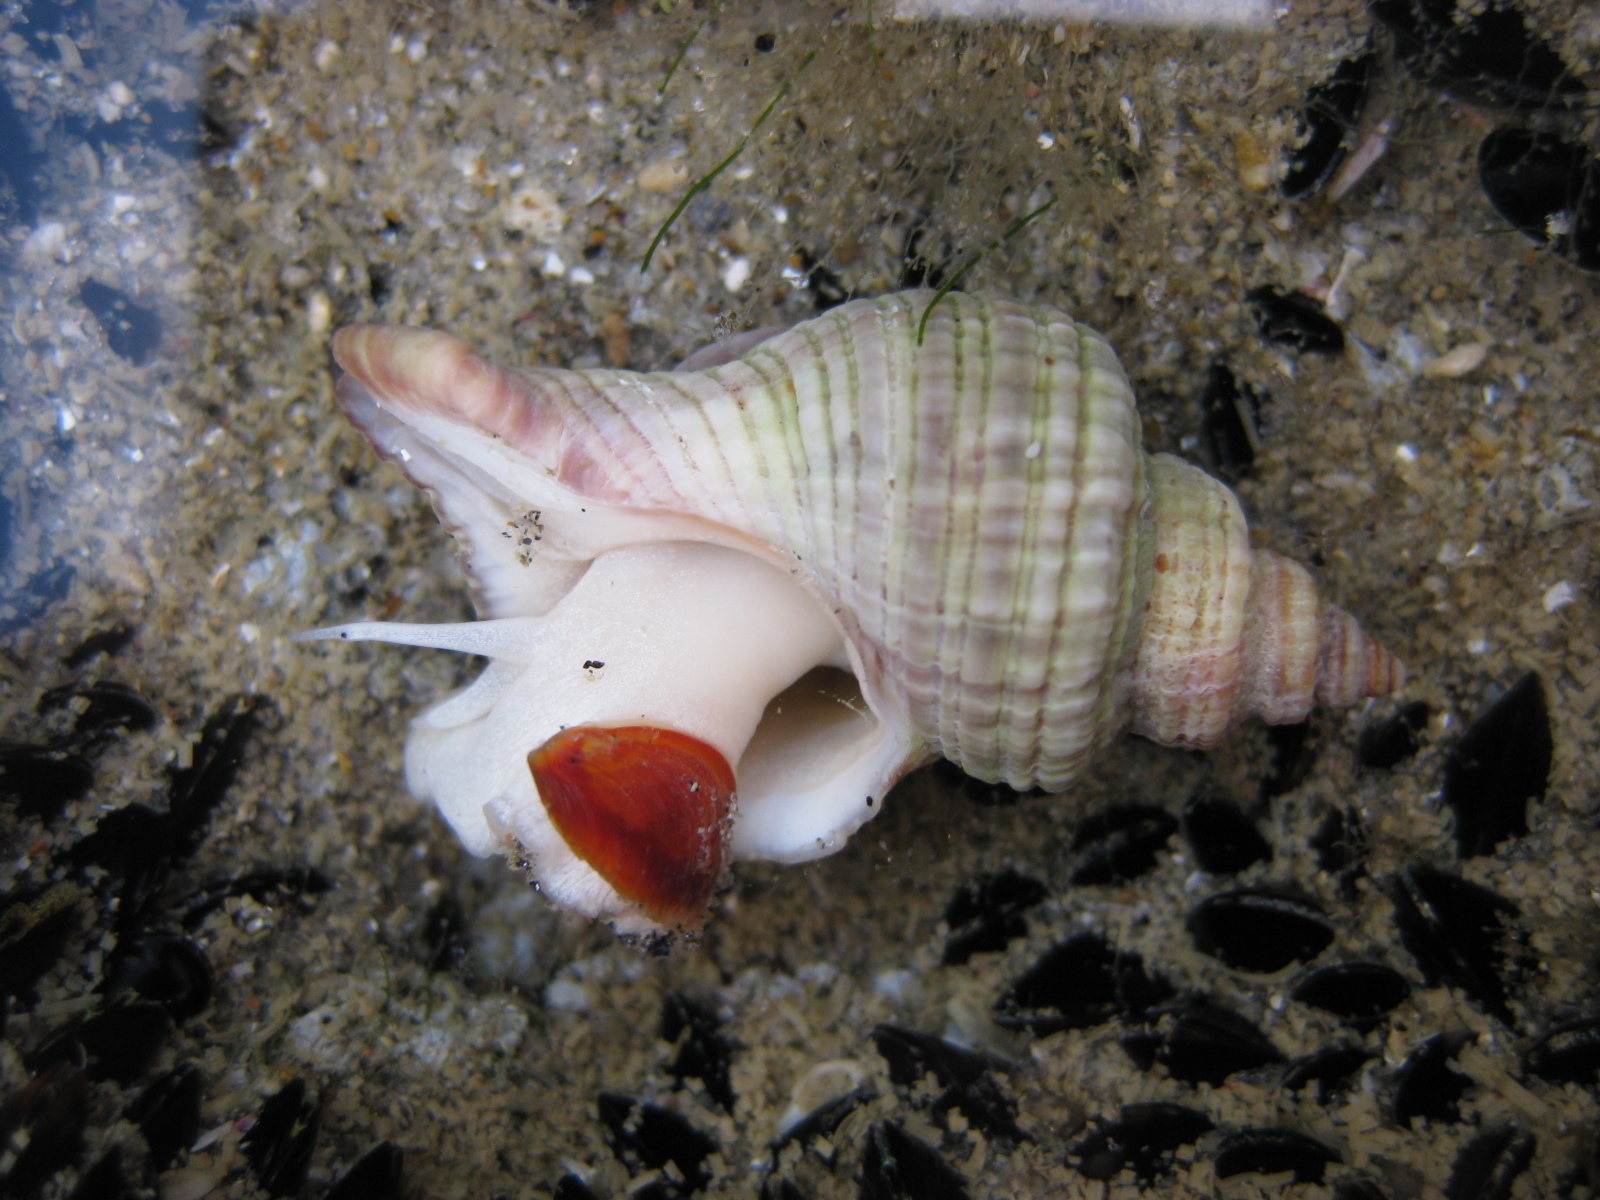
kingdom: Animalia
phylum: Mollusca
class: Gastropoda
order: Neogastropoda
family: Muricidae
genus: Zeatrophon
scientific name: Zeatrophon ambiguus
